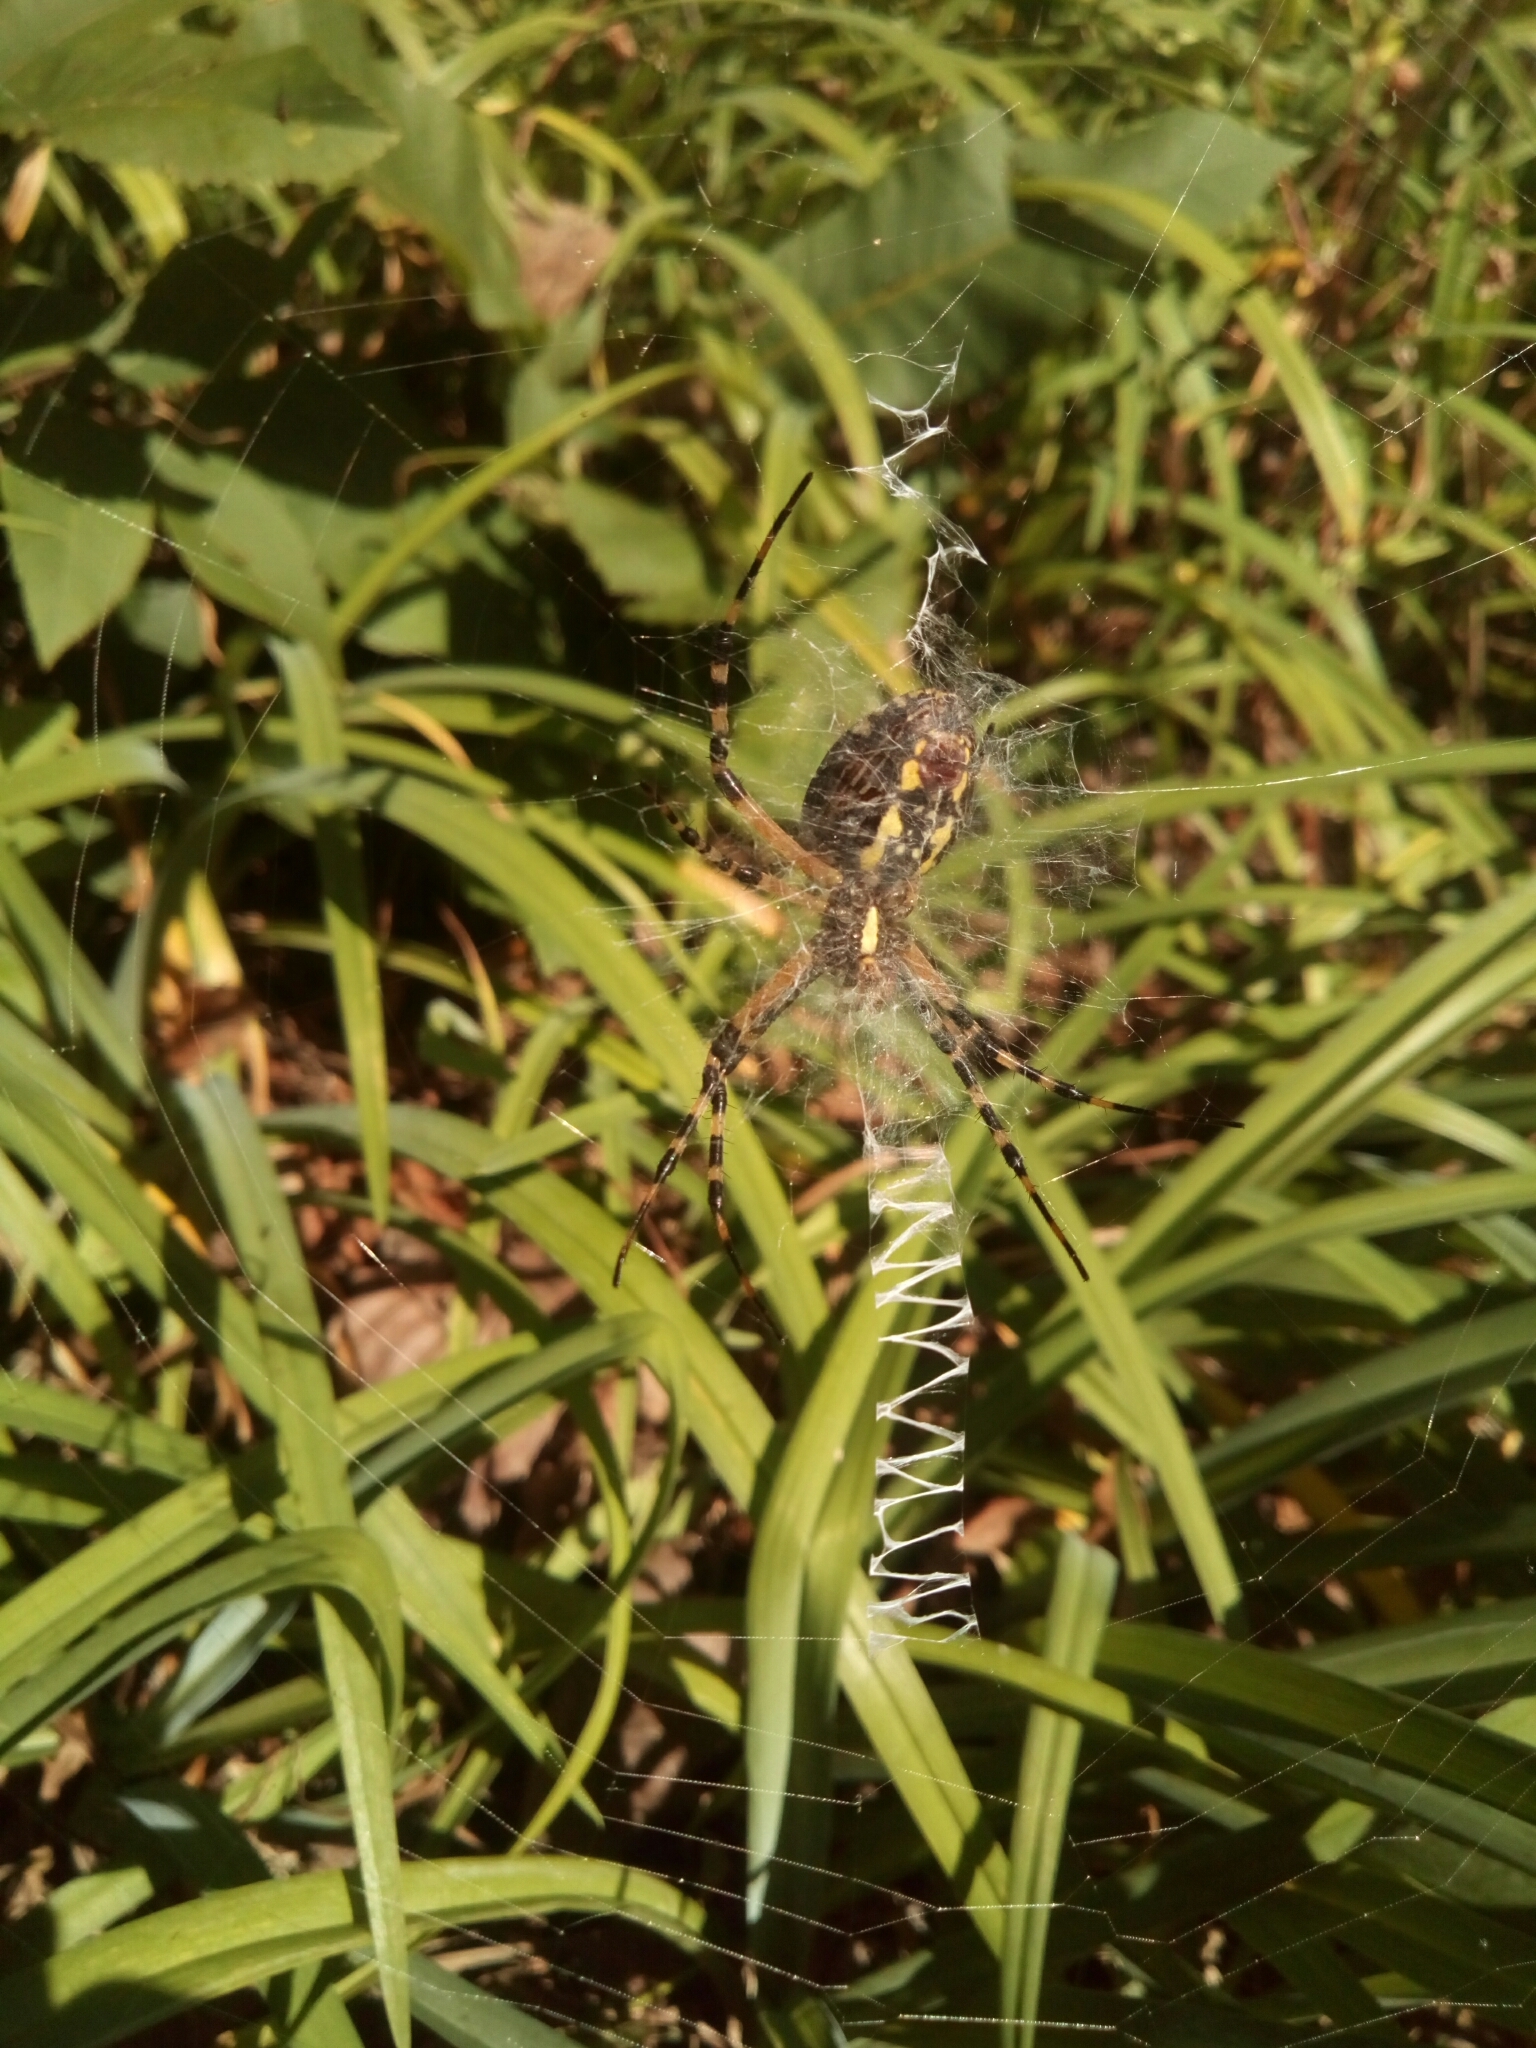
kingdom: Animalia
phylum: Arthropoda
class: Arachnida
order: Araneae
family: Araneidae
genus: Argiope
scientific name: Argiope aurantia
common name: Orb weavers
